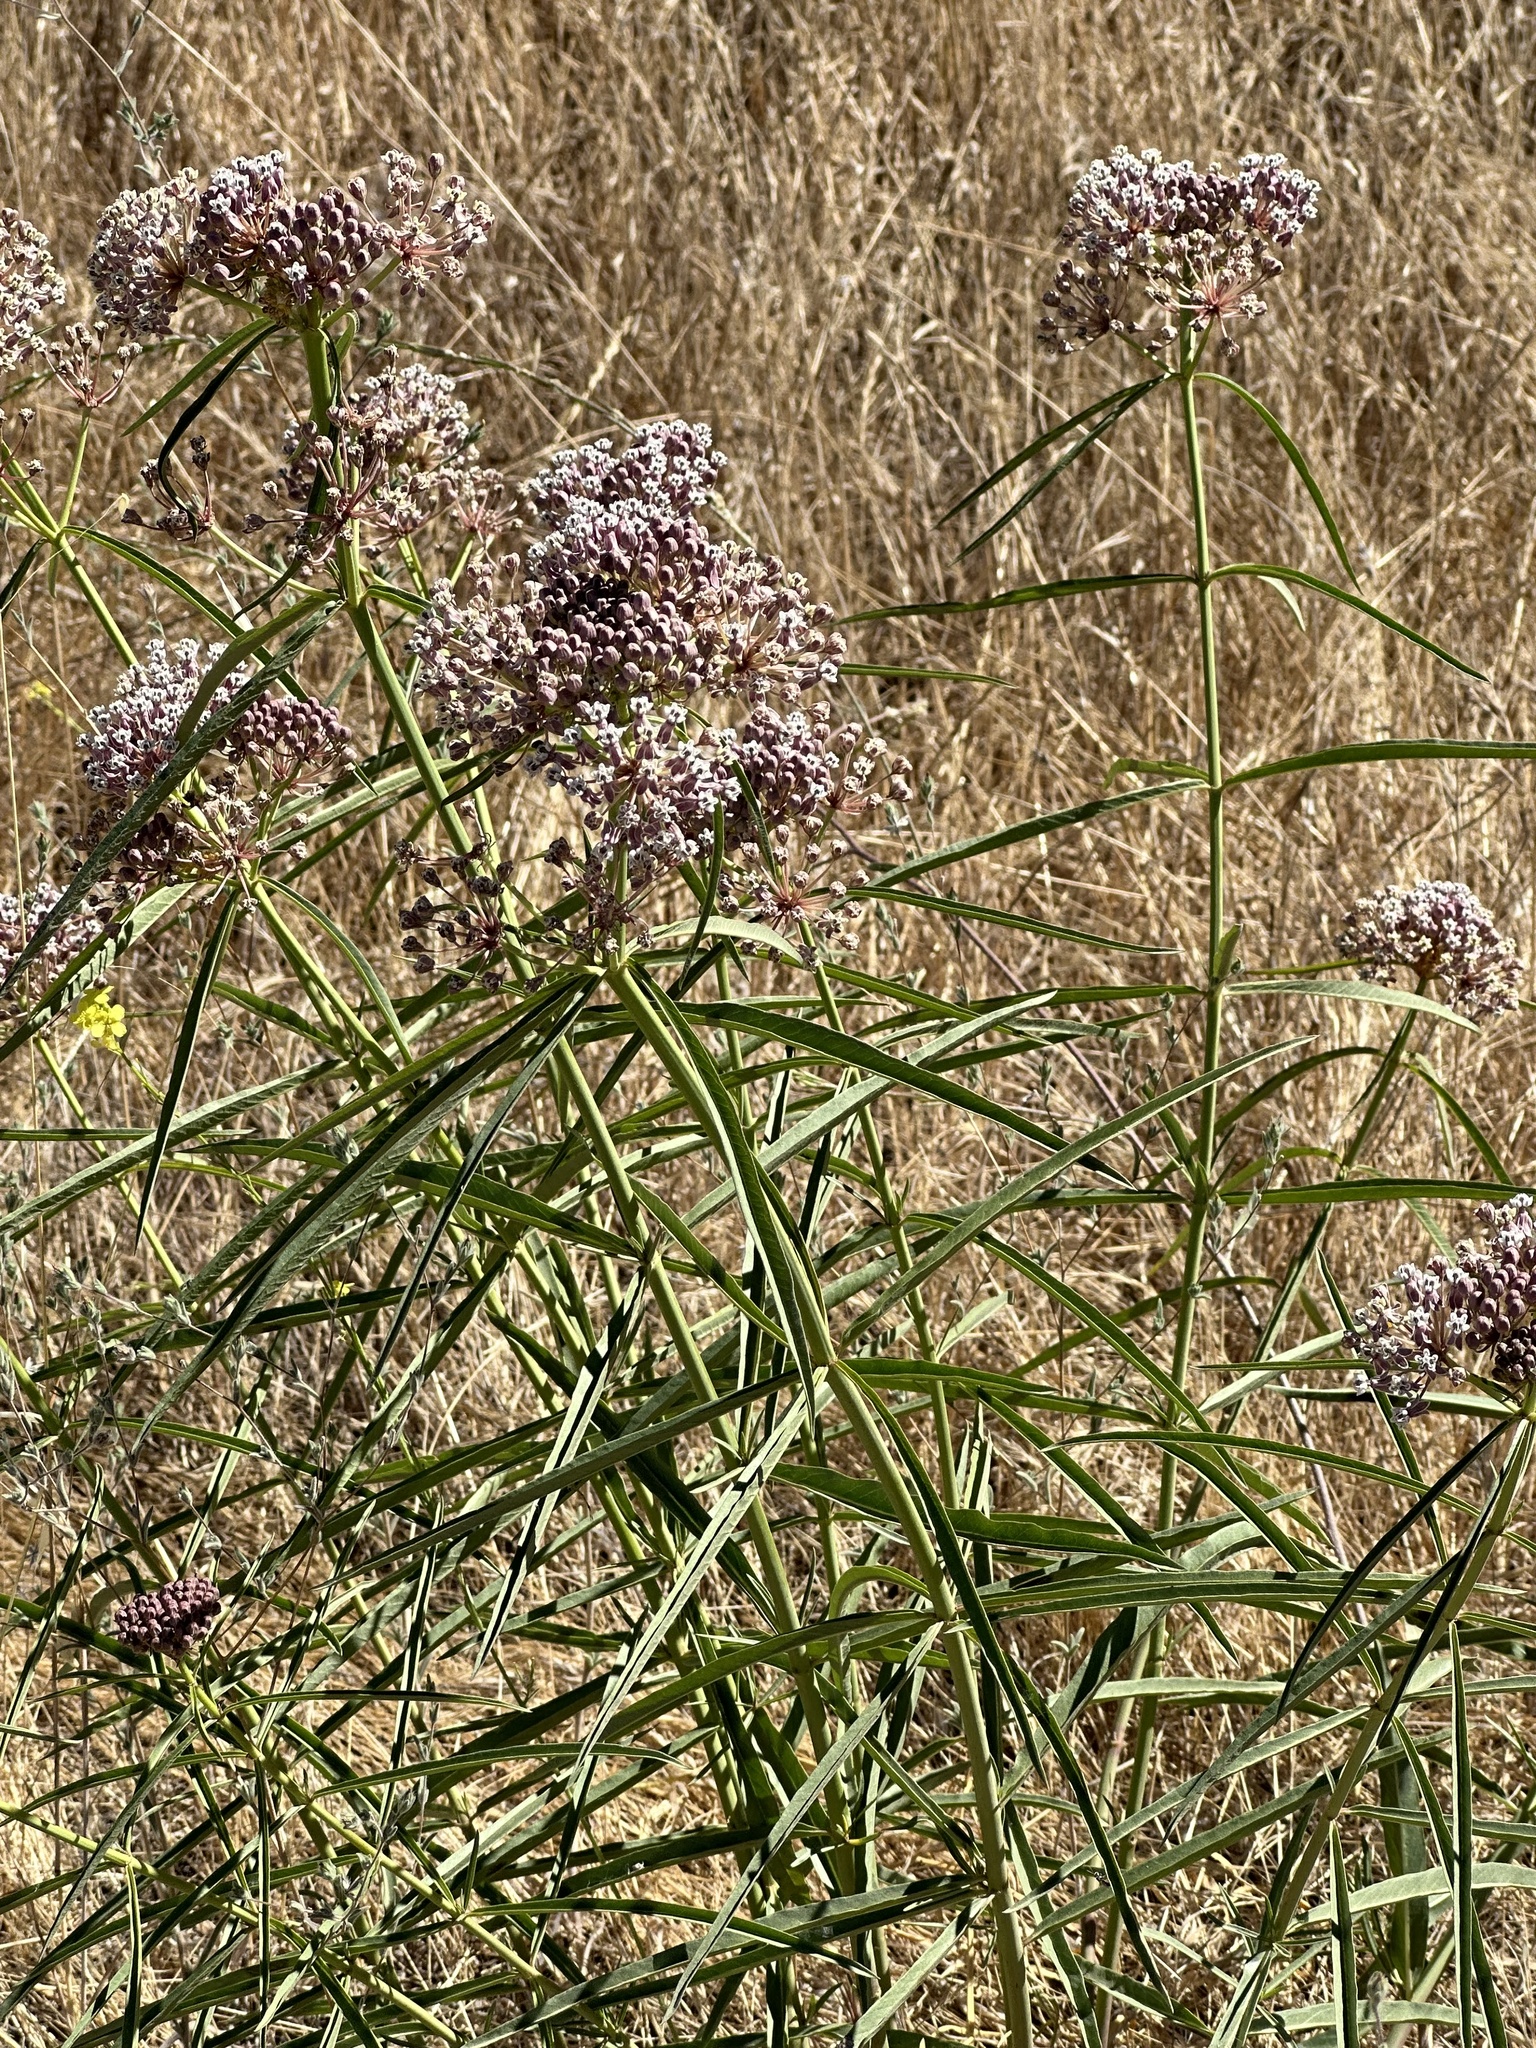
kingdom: Plantae
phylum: Tracheophyta
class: Magnoliopsida
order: Gentianales
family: Apocynaceae
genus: Asclepias
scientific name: Asclepias fascicularis
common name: Mexican milkweed
